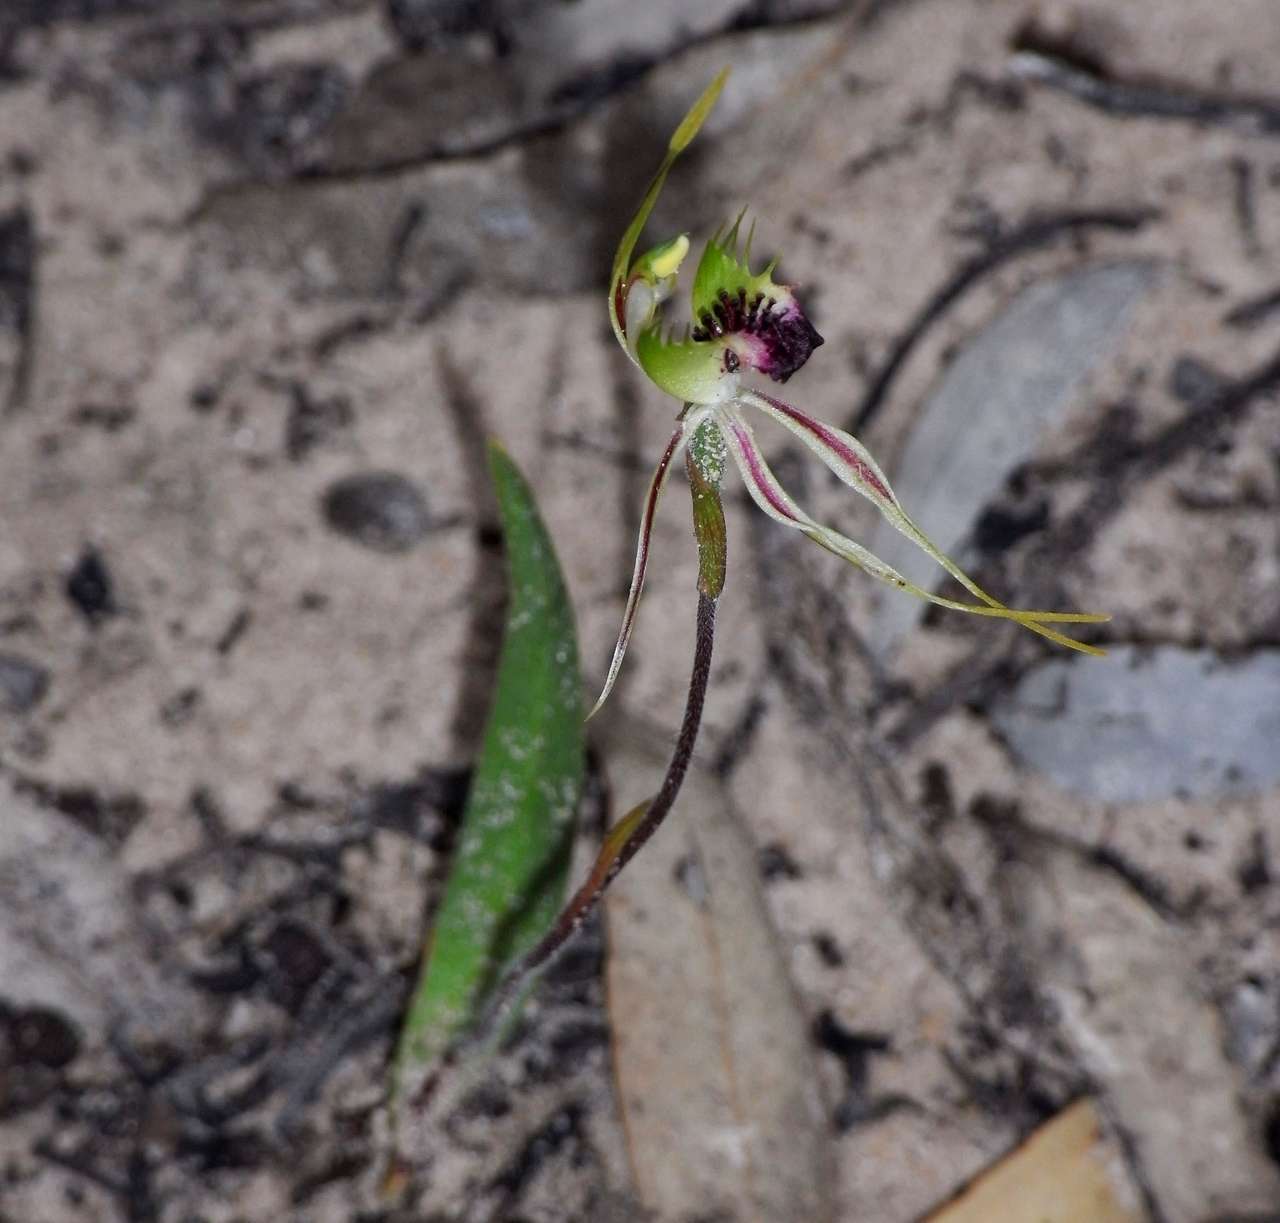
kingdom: Plantae
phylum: Tracheophyta
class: Liliopsida
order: Asparagales
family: Orchidaceae
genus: Caladenia
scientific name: Caladenia verrucosa
